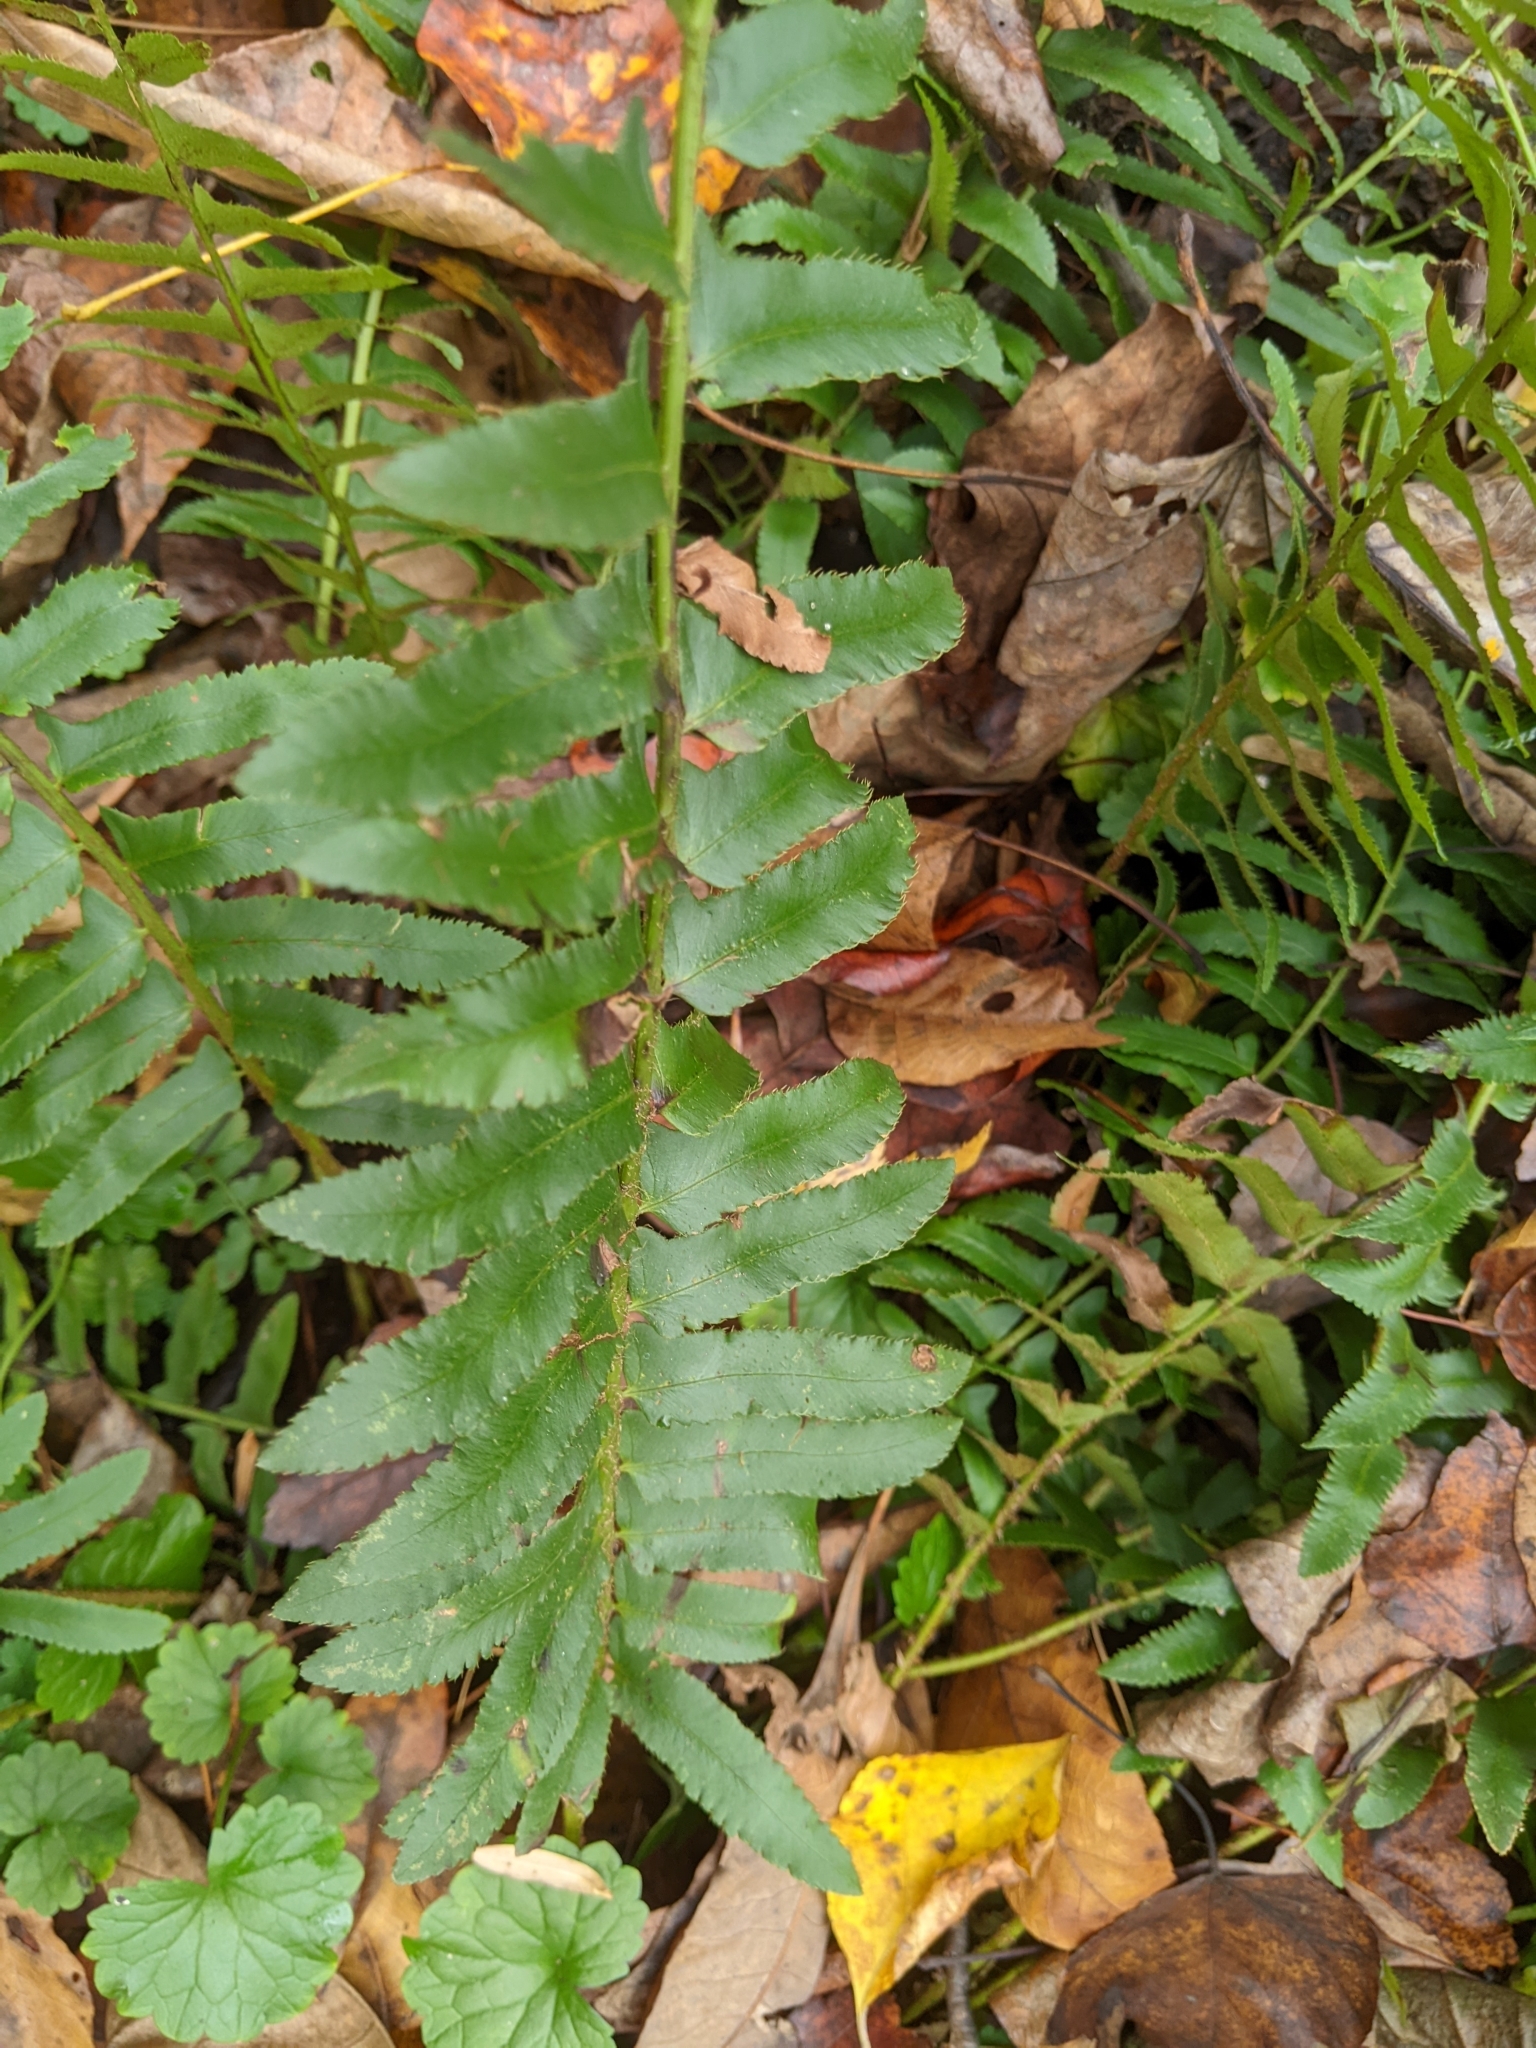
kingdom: Plantae
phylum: Tracheophyta
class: Polypodiopsida
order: Polypodiales
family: Dryopteridaceae
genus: Polystichum
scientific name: Polystichum acrostichoides
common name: Christmas fern
